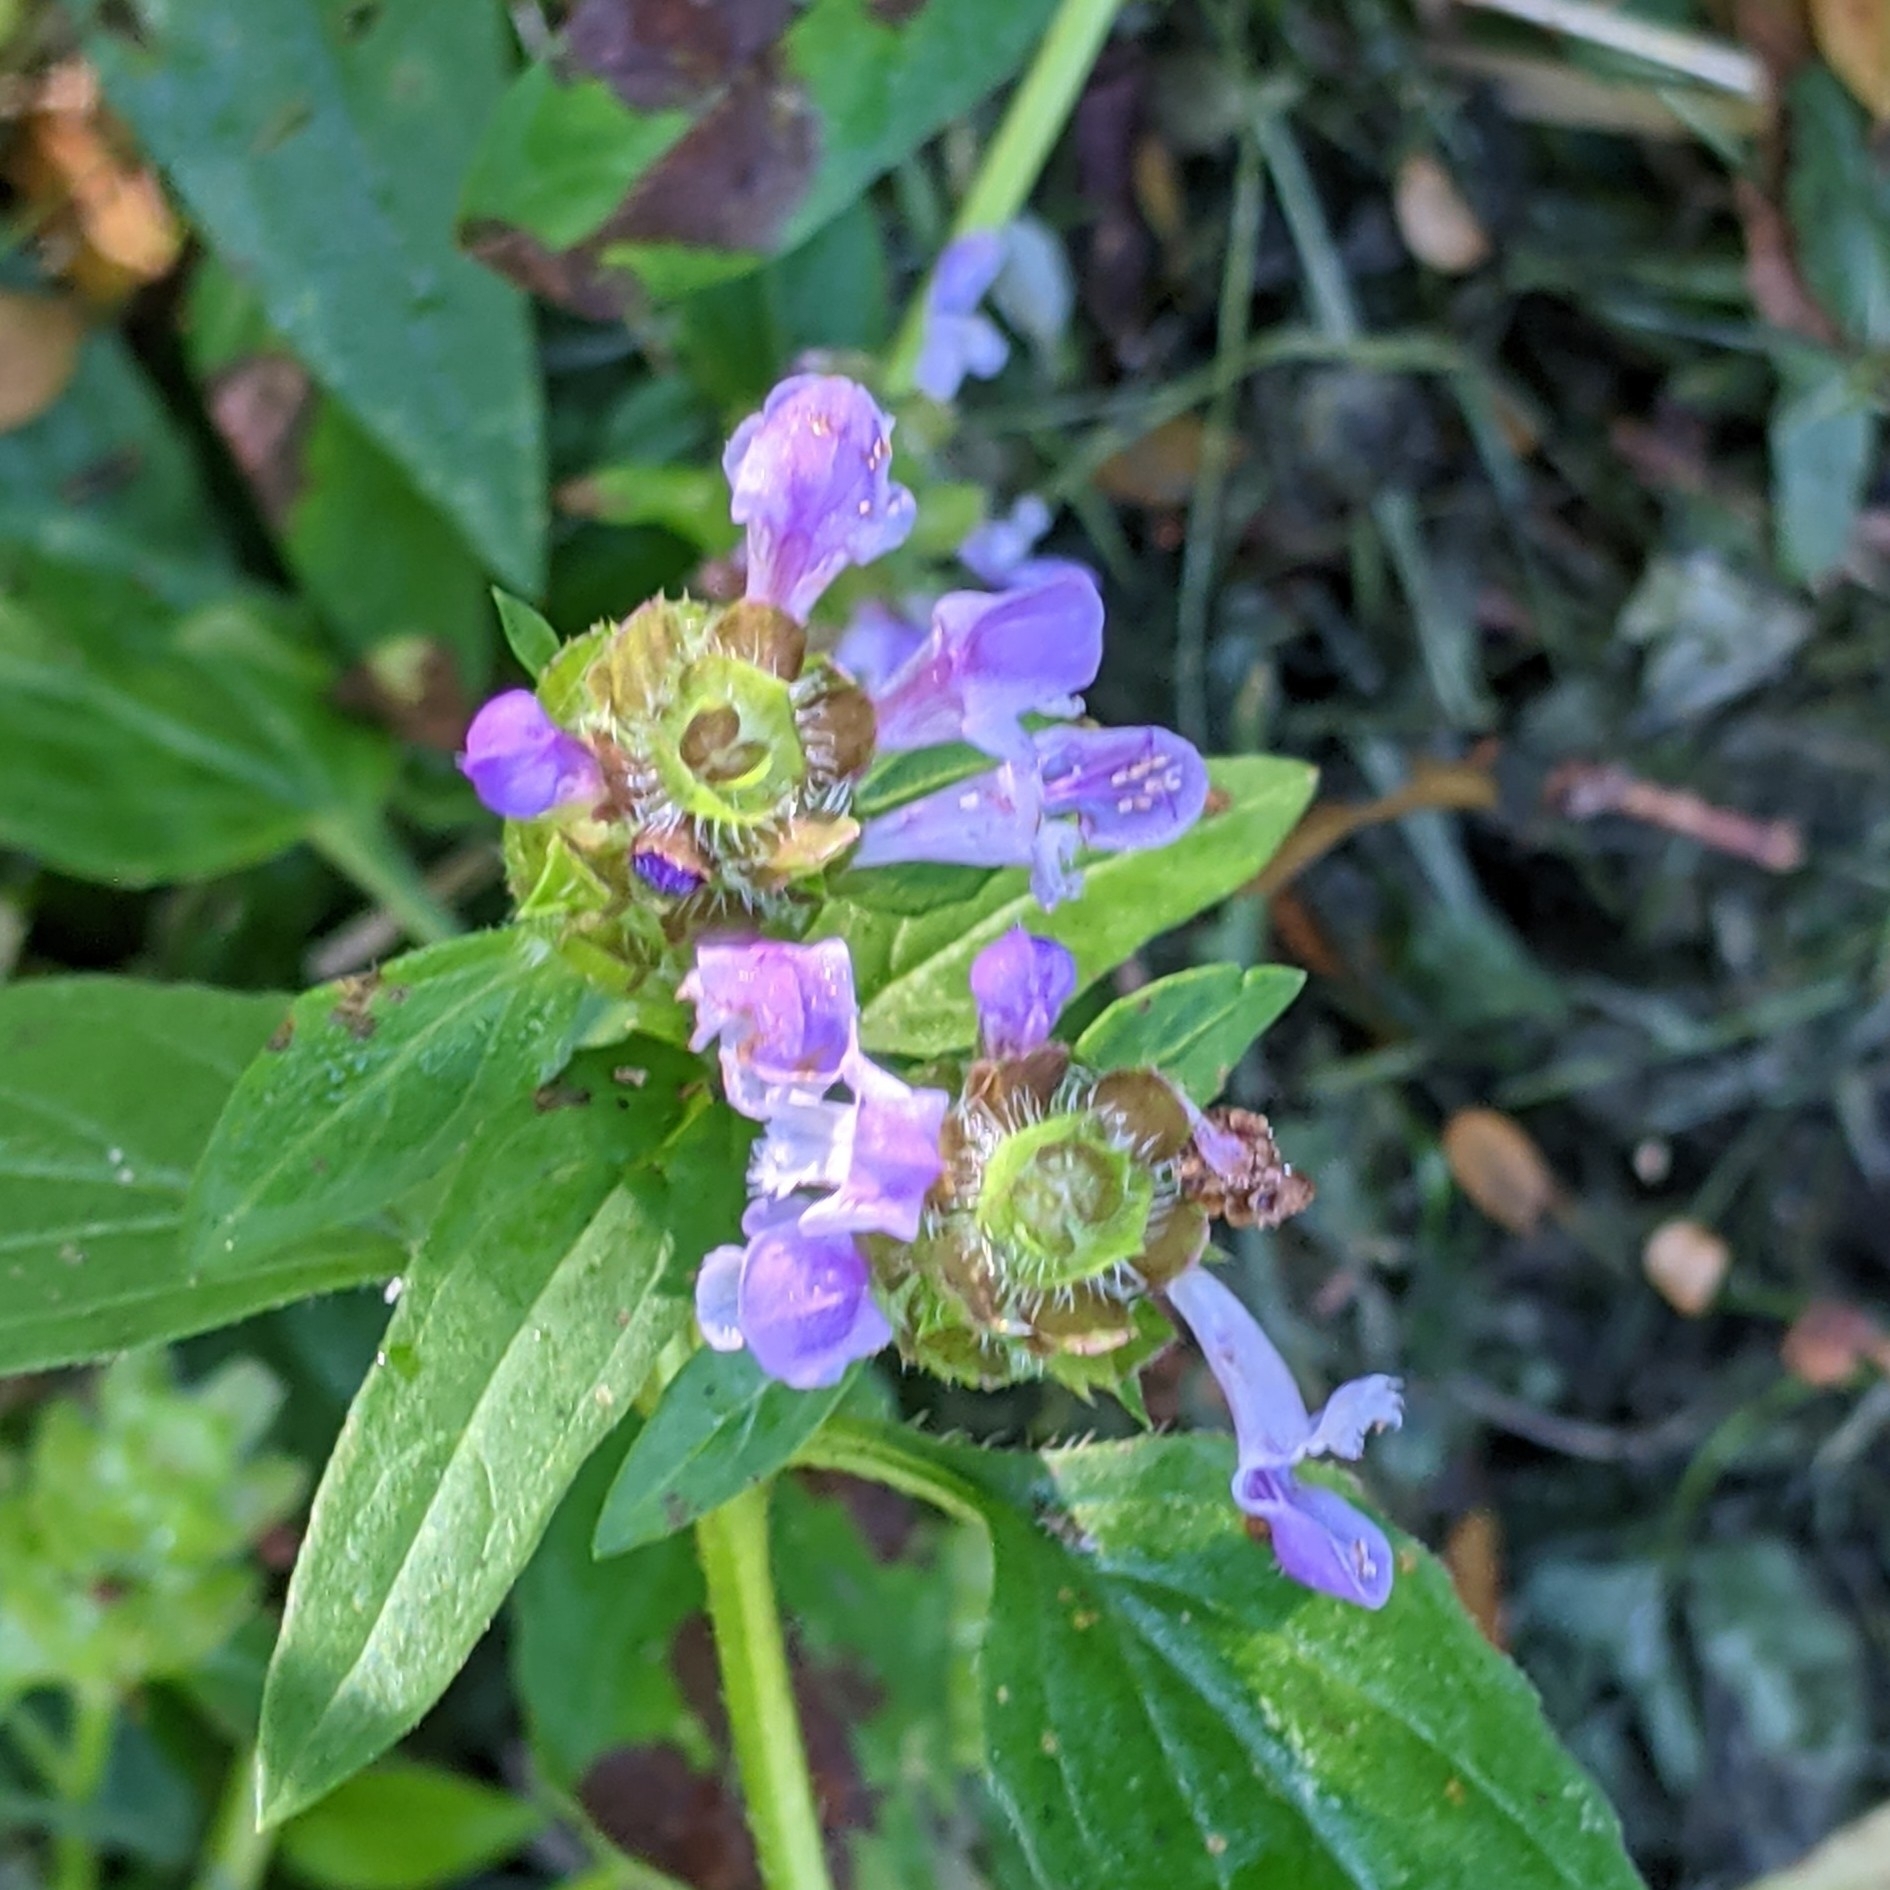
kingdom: Plantae
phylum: Tracheophyta
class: Magnoliopsida
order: Lamiales
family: Lamiaceae
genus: Prunella
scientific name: Prunella vulgaris
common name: Heal-all
